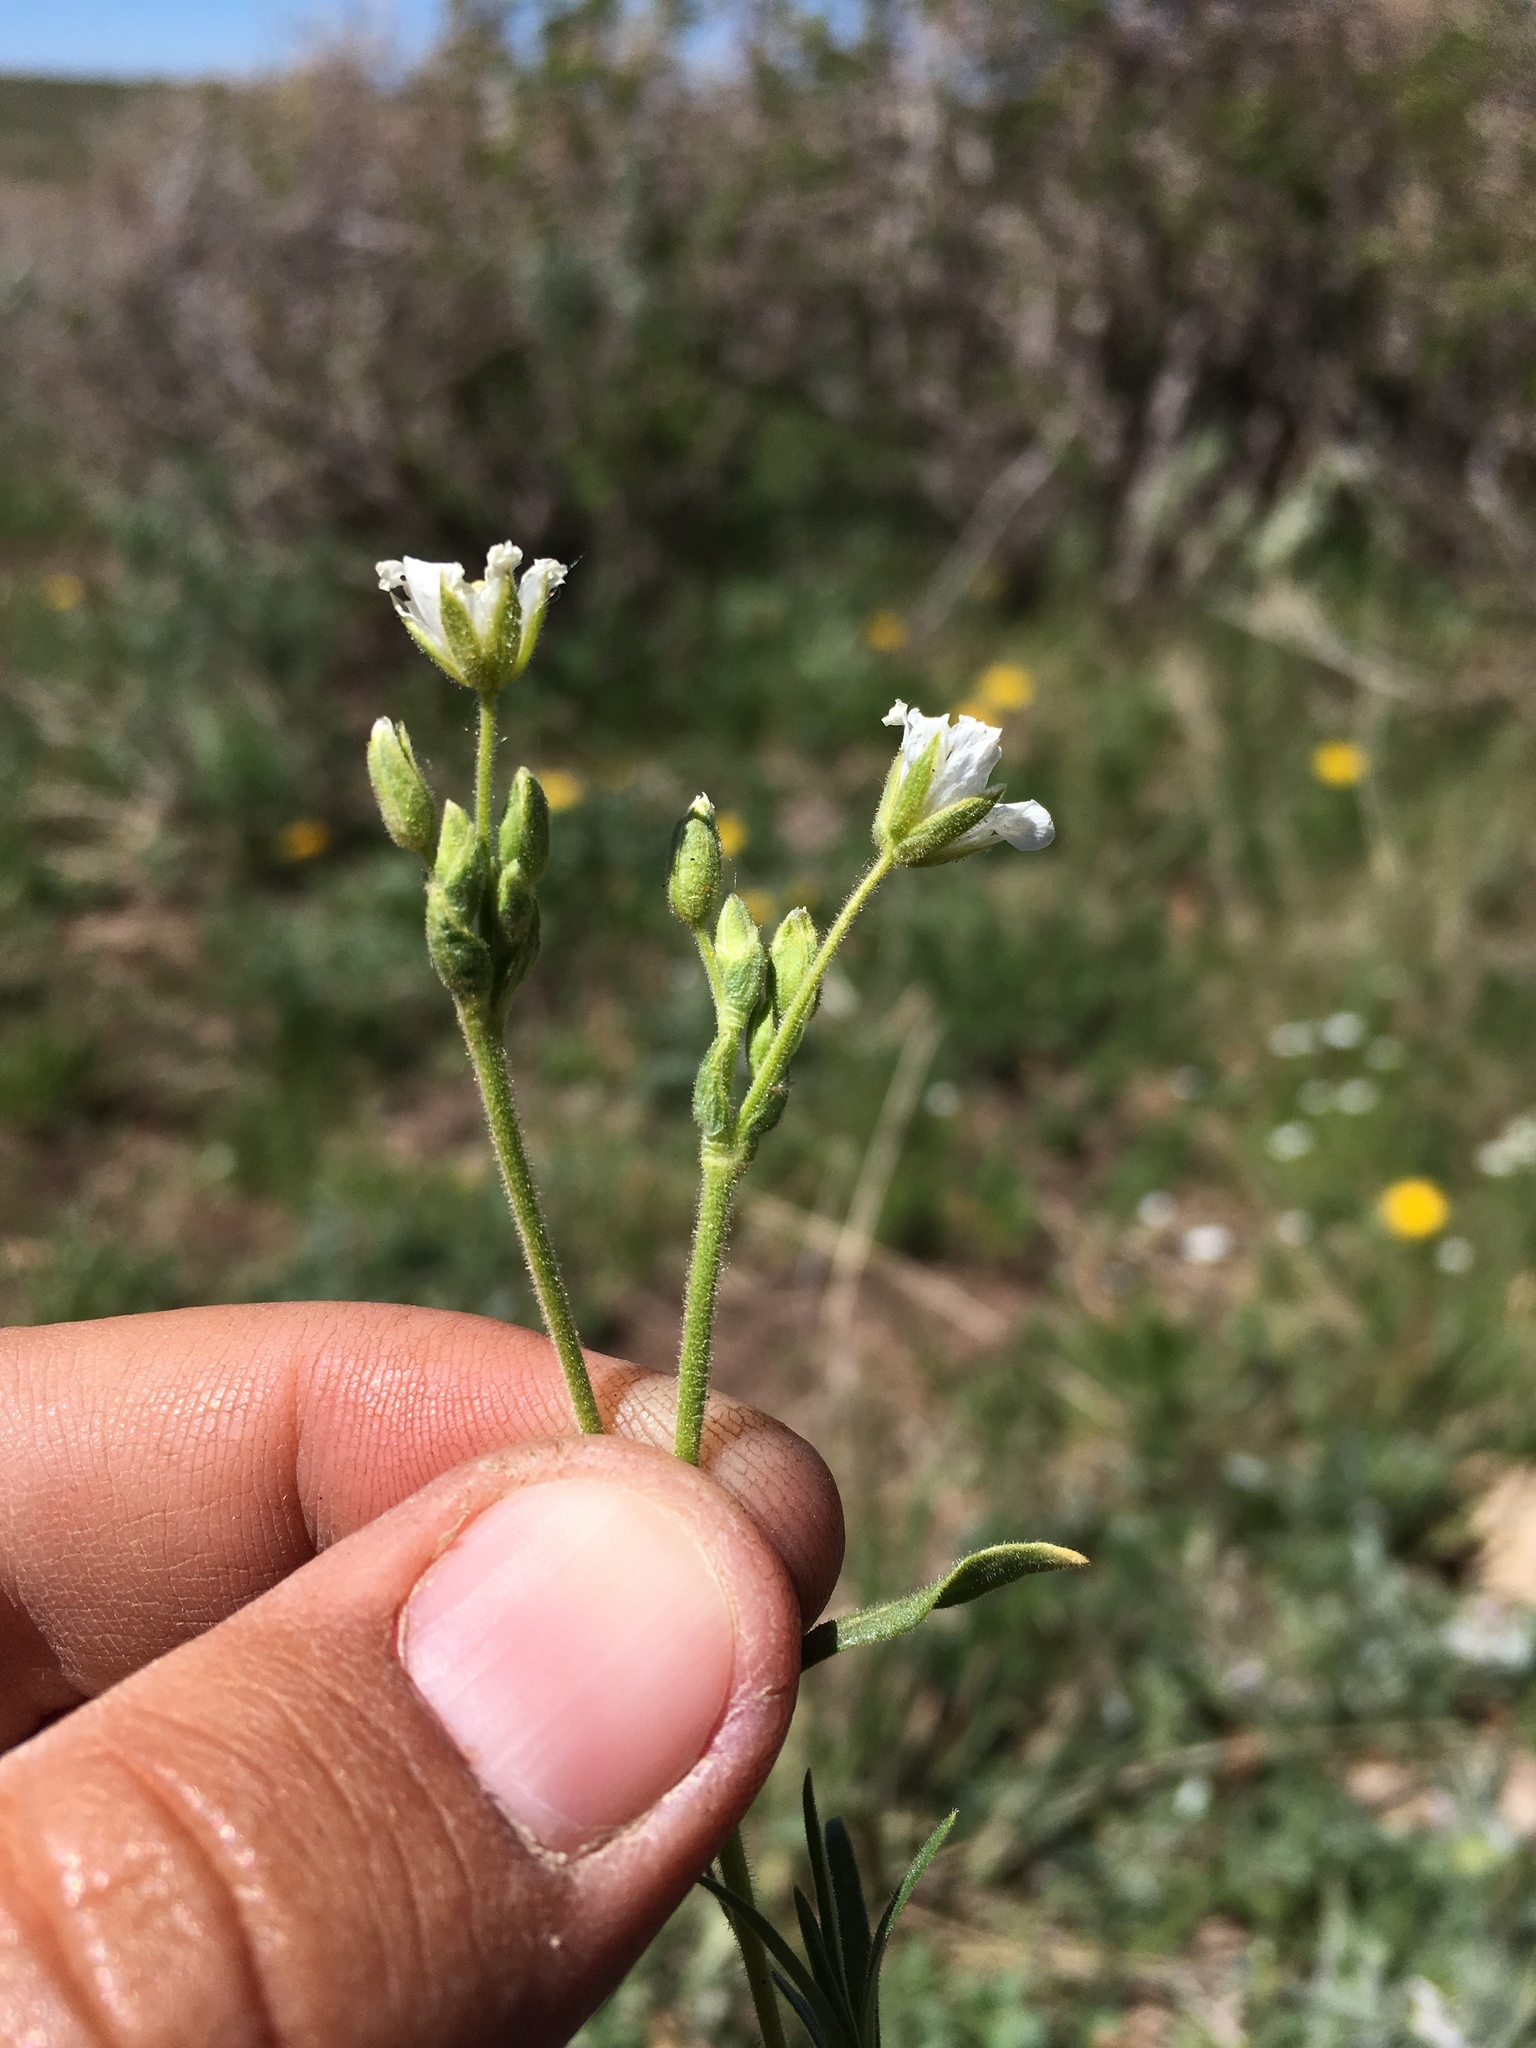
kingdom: Plantae
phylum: Tracheophyta
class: Magnoliopsida
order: Caryophyllales
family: Caryophyllaceae
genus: Cerastium
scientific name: Cerastium arvense
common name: Field mouse-ear
